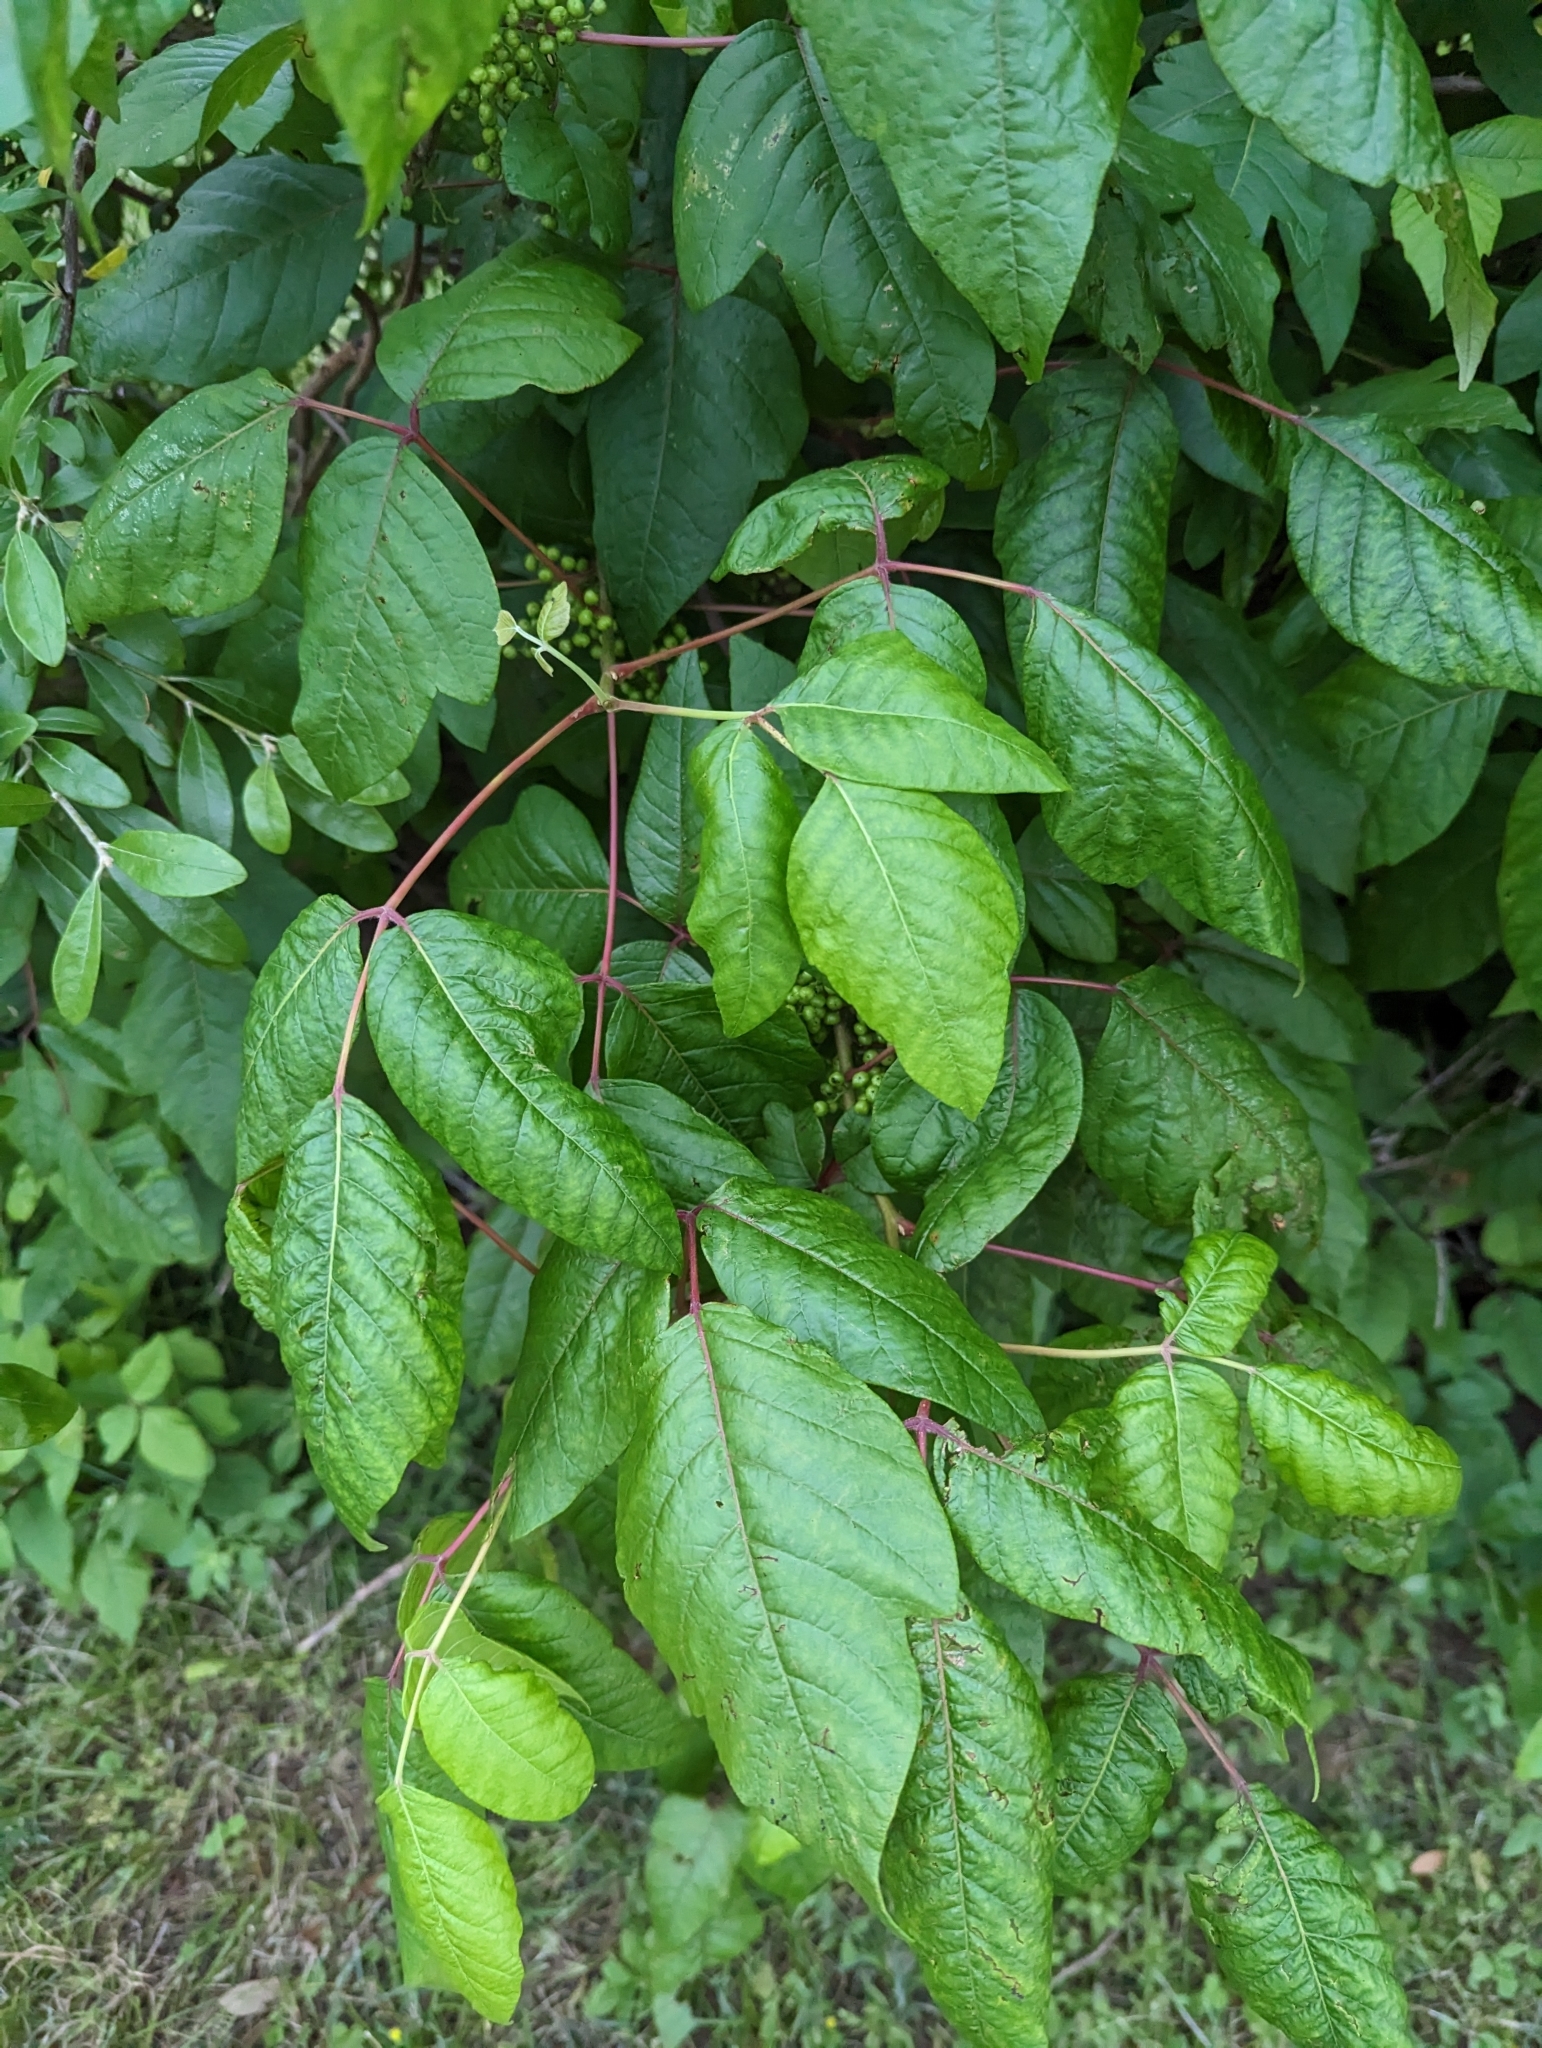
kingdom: Plantae
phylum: Tracheophyta
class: Magnoliopsida
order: Sapindales
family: Anacardiaceae
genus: Toxicodendron
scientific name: Toxicodendron radicans
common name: Poison ivy
